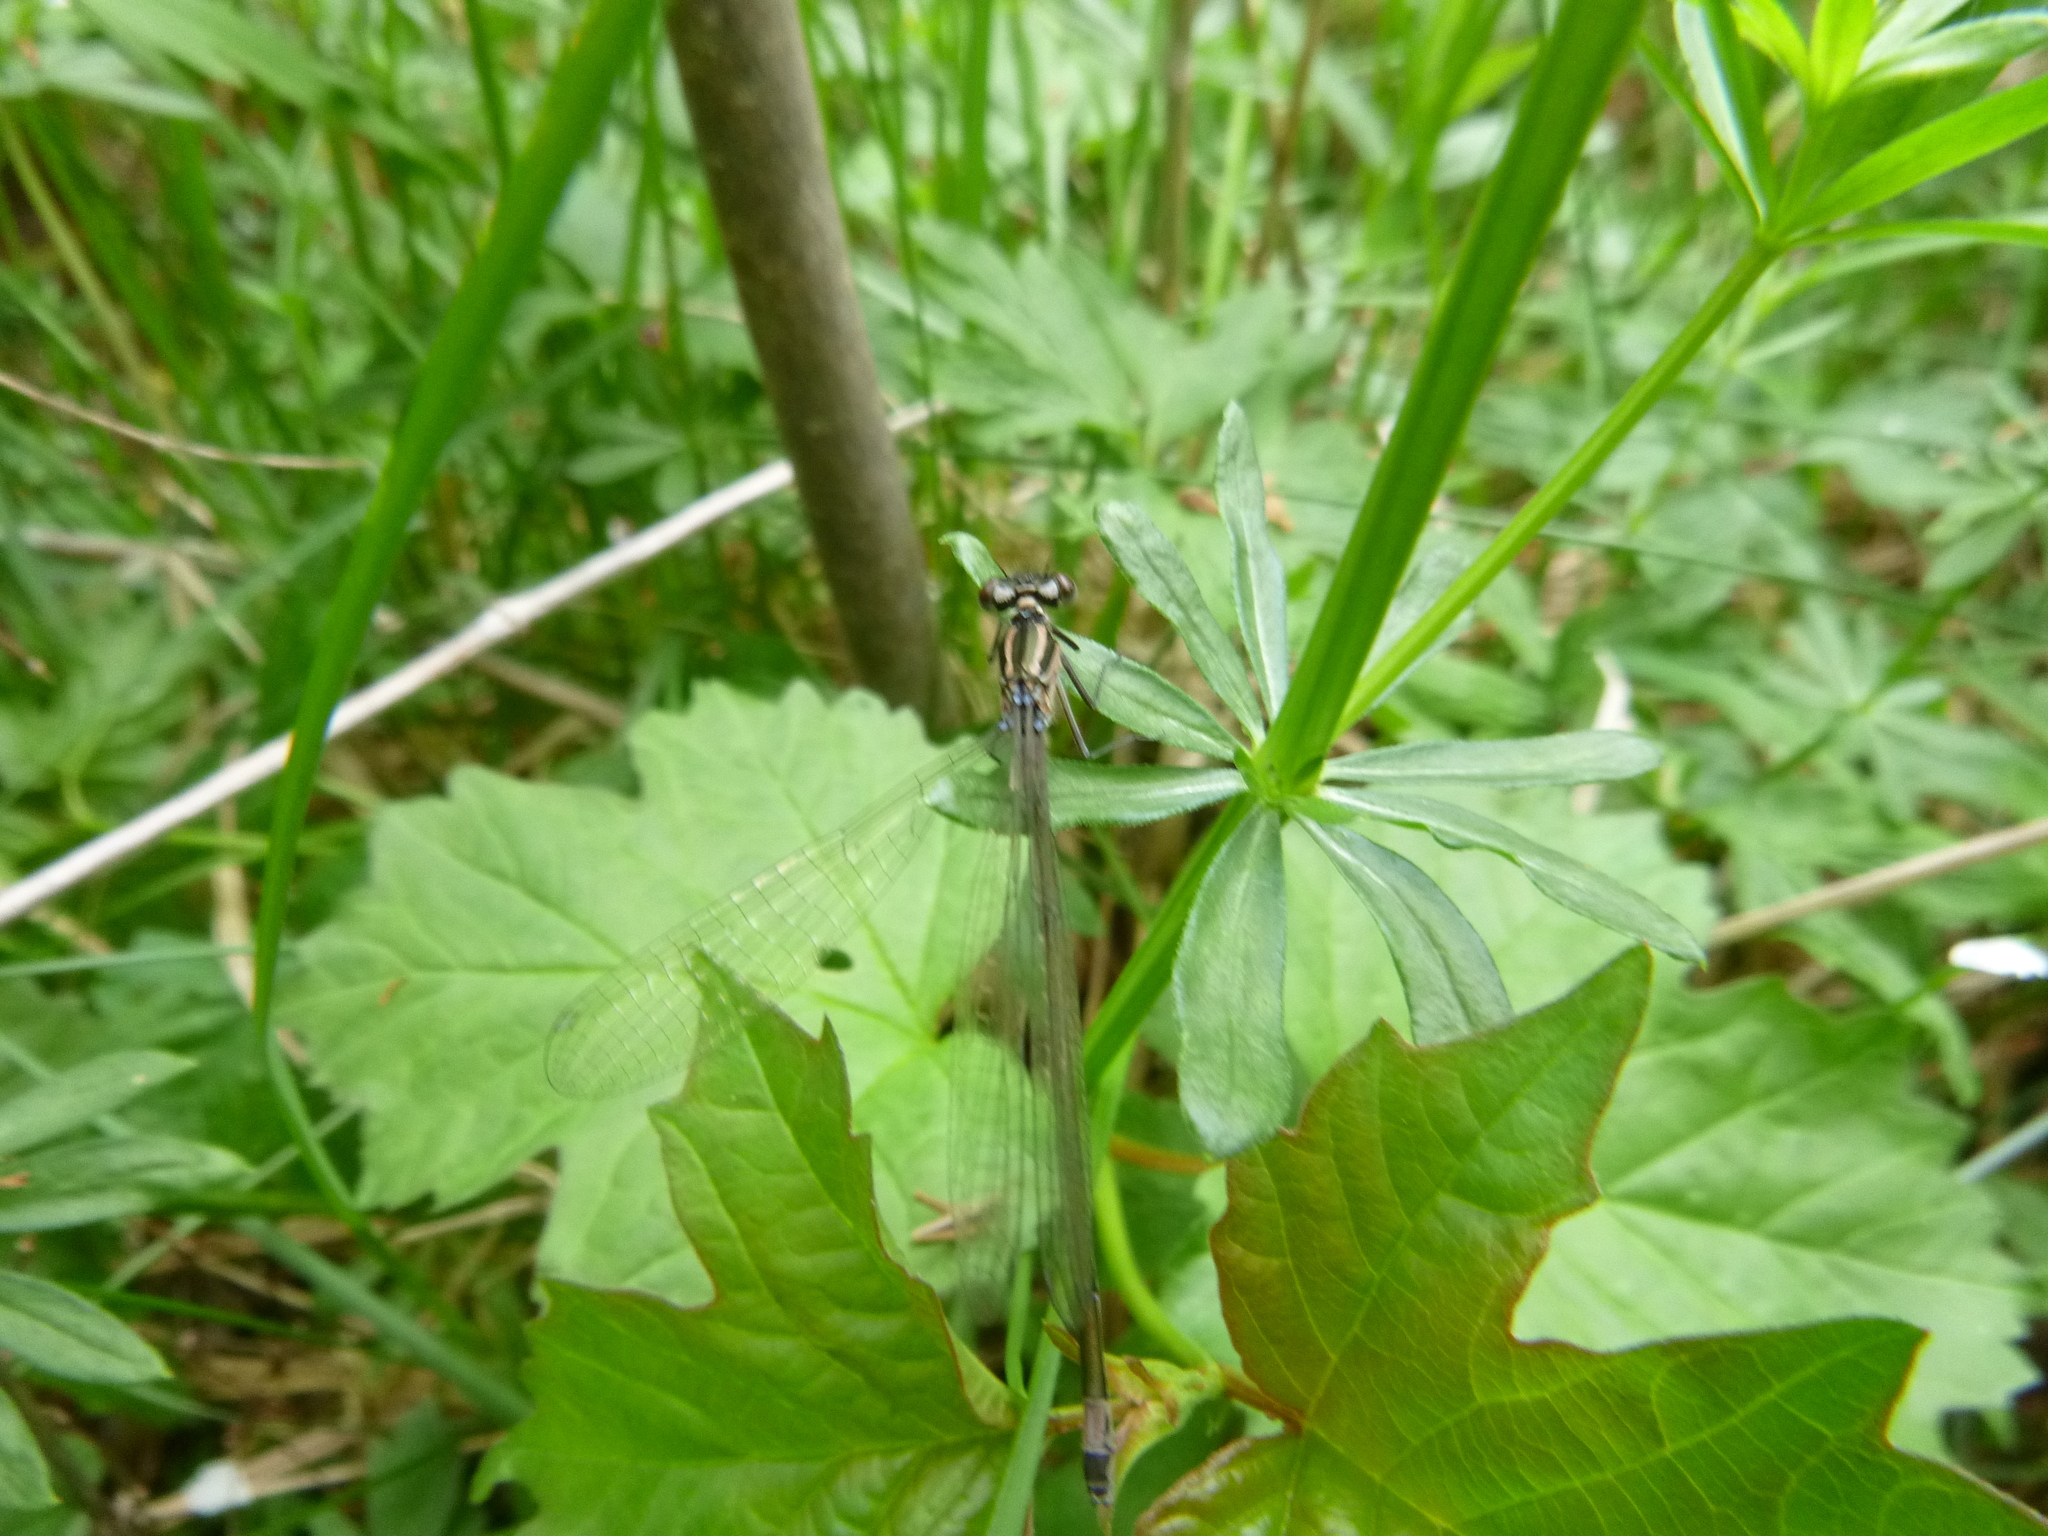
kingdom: Animalia
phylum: Arthropoda
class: Insecta
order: Odonata
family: Coenagrionidae
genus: Coenagrion
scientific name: Coenagrion pulchellum
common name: Variable bluet
